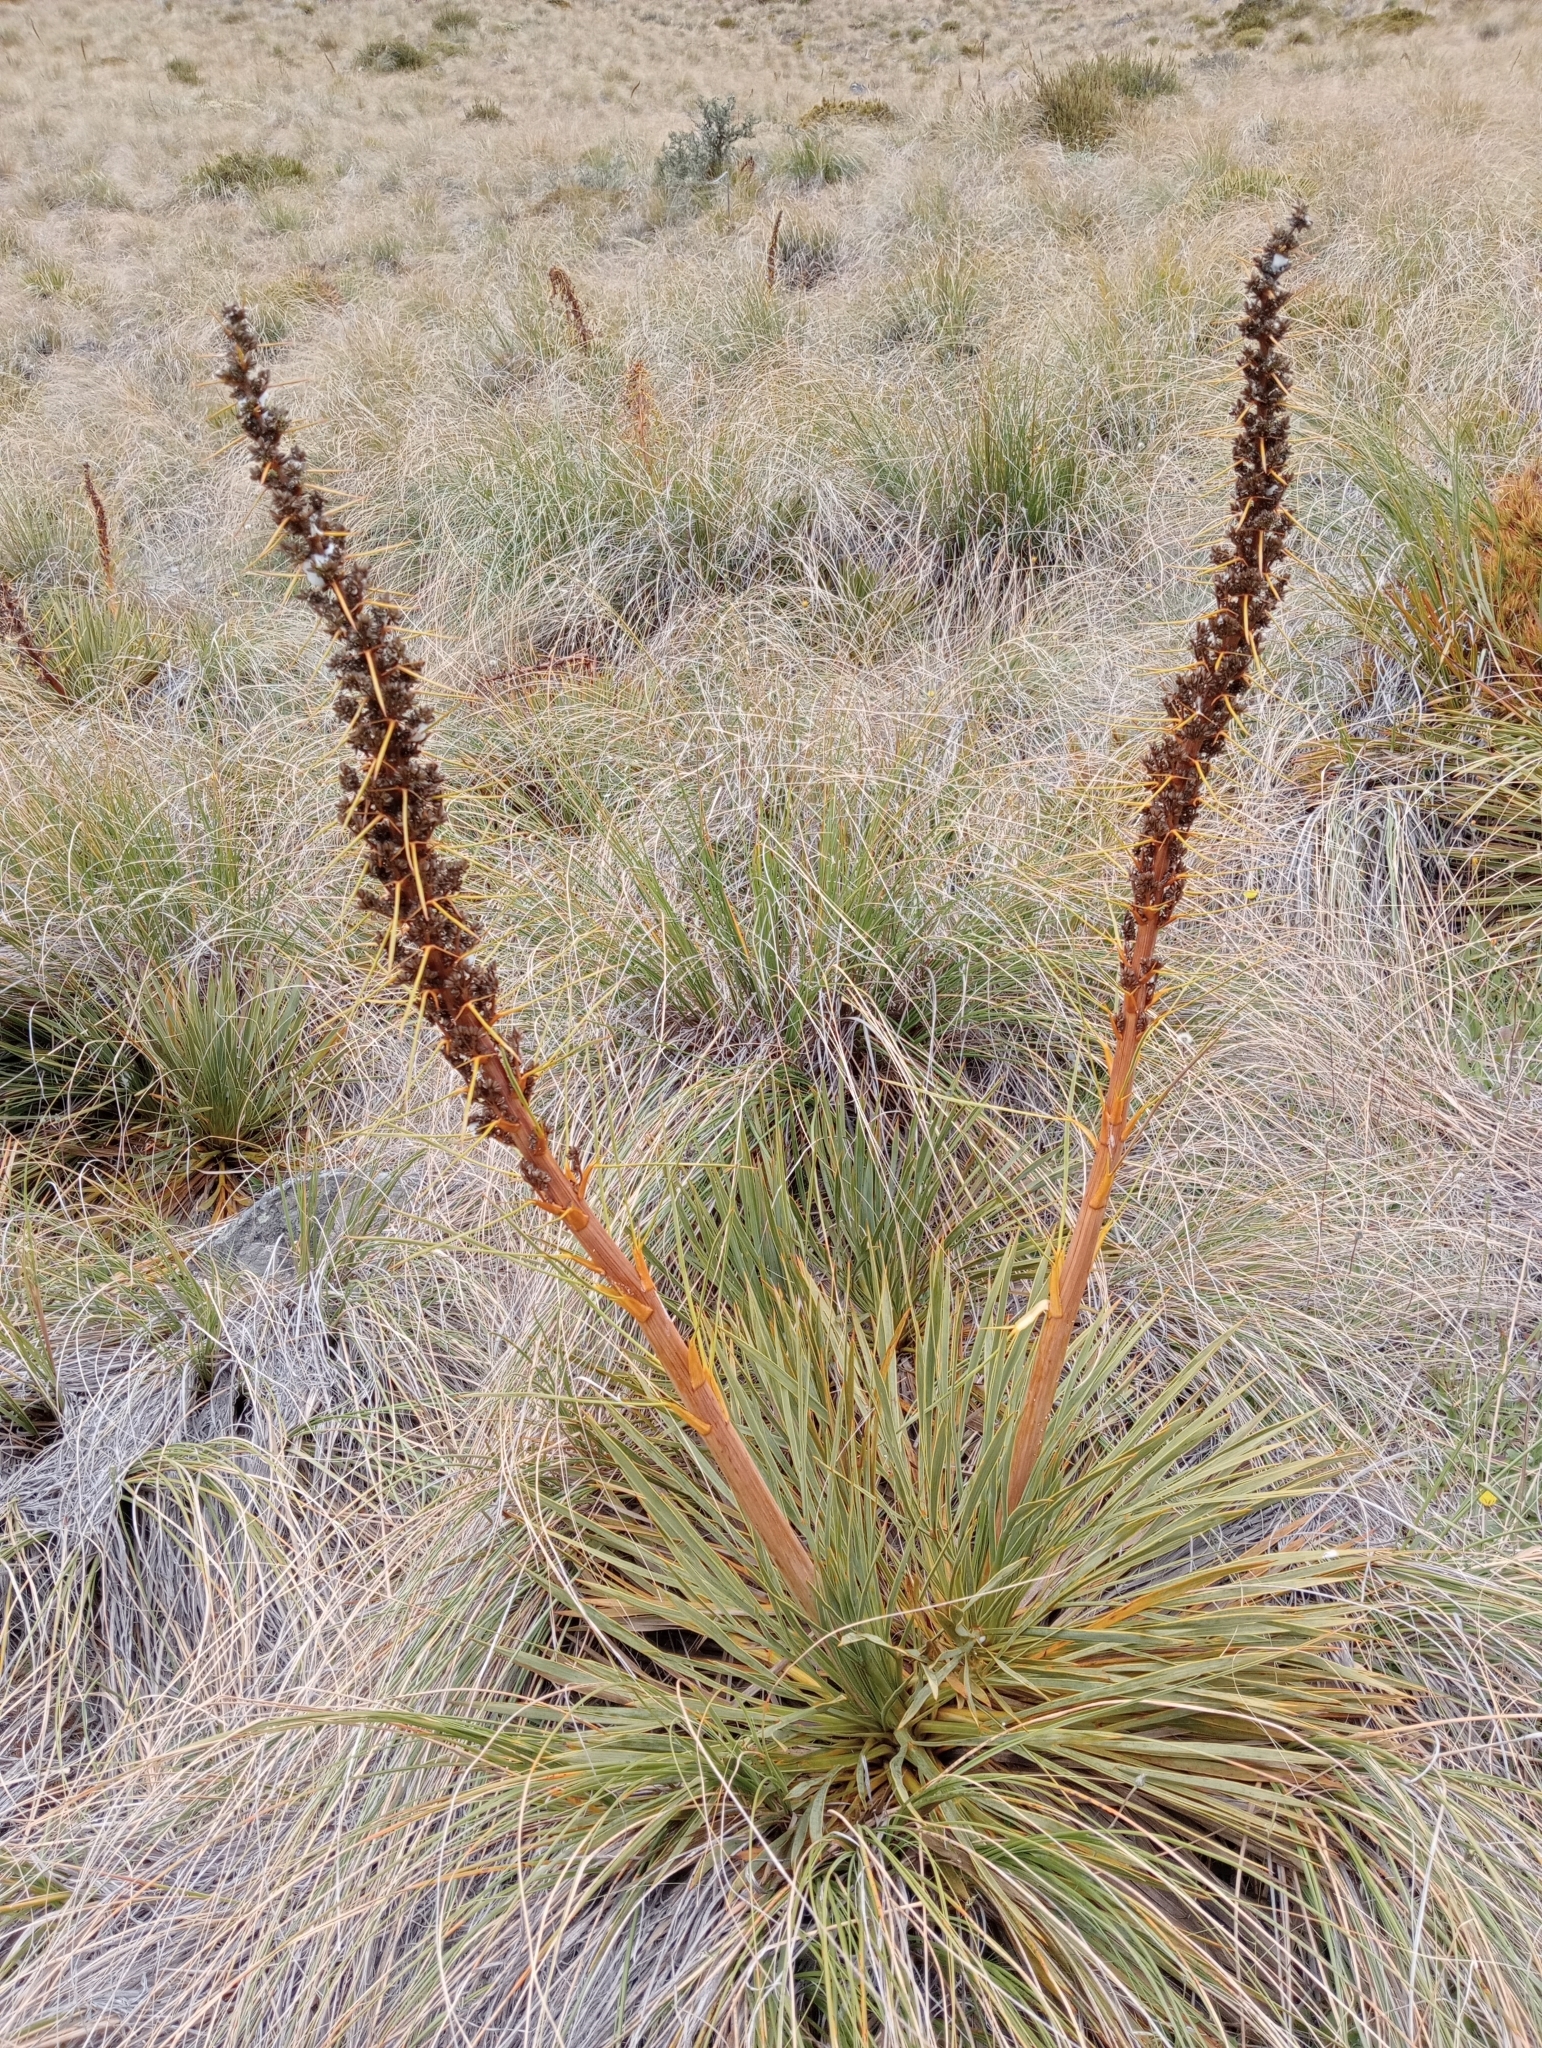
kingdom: Plantae
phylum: Tracheophyta
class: Magnoliopsida
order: Apiales
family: Apiaceae
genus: Aciphylla
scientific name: Aciphylla aurea
